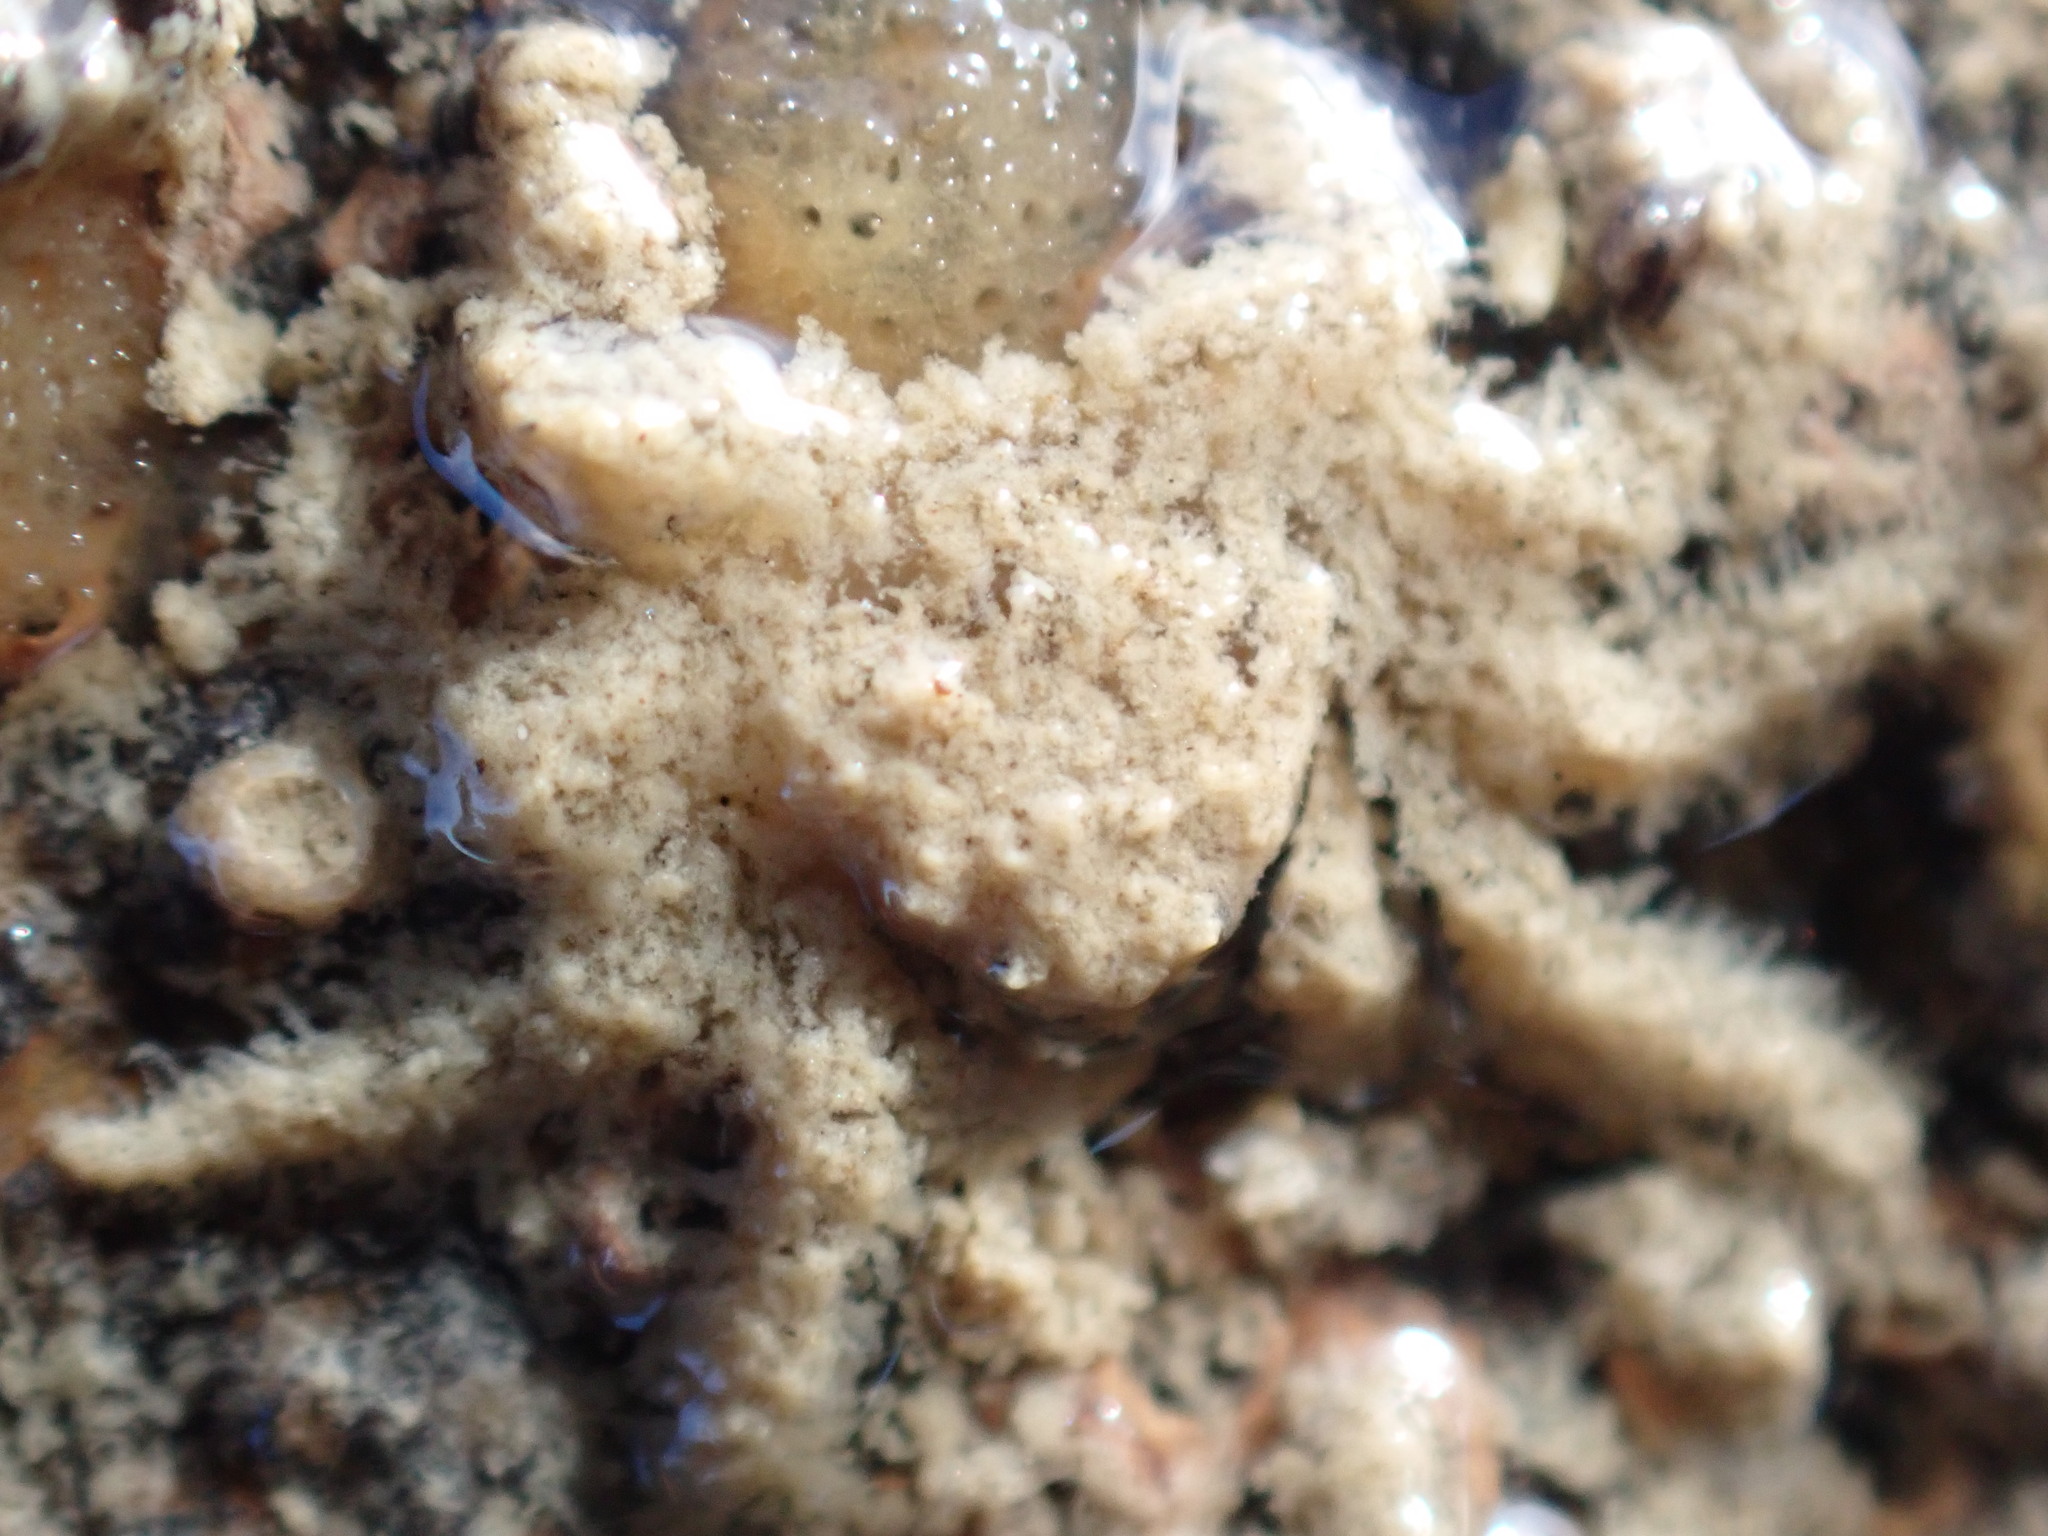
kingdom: Animalia
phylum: Arthropoda
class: Malacostraca
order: Decapoda
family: Hymenosomatidae
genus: Neohymenicus
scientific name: Neohymenicus pubescens
